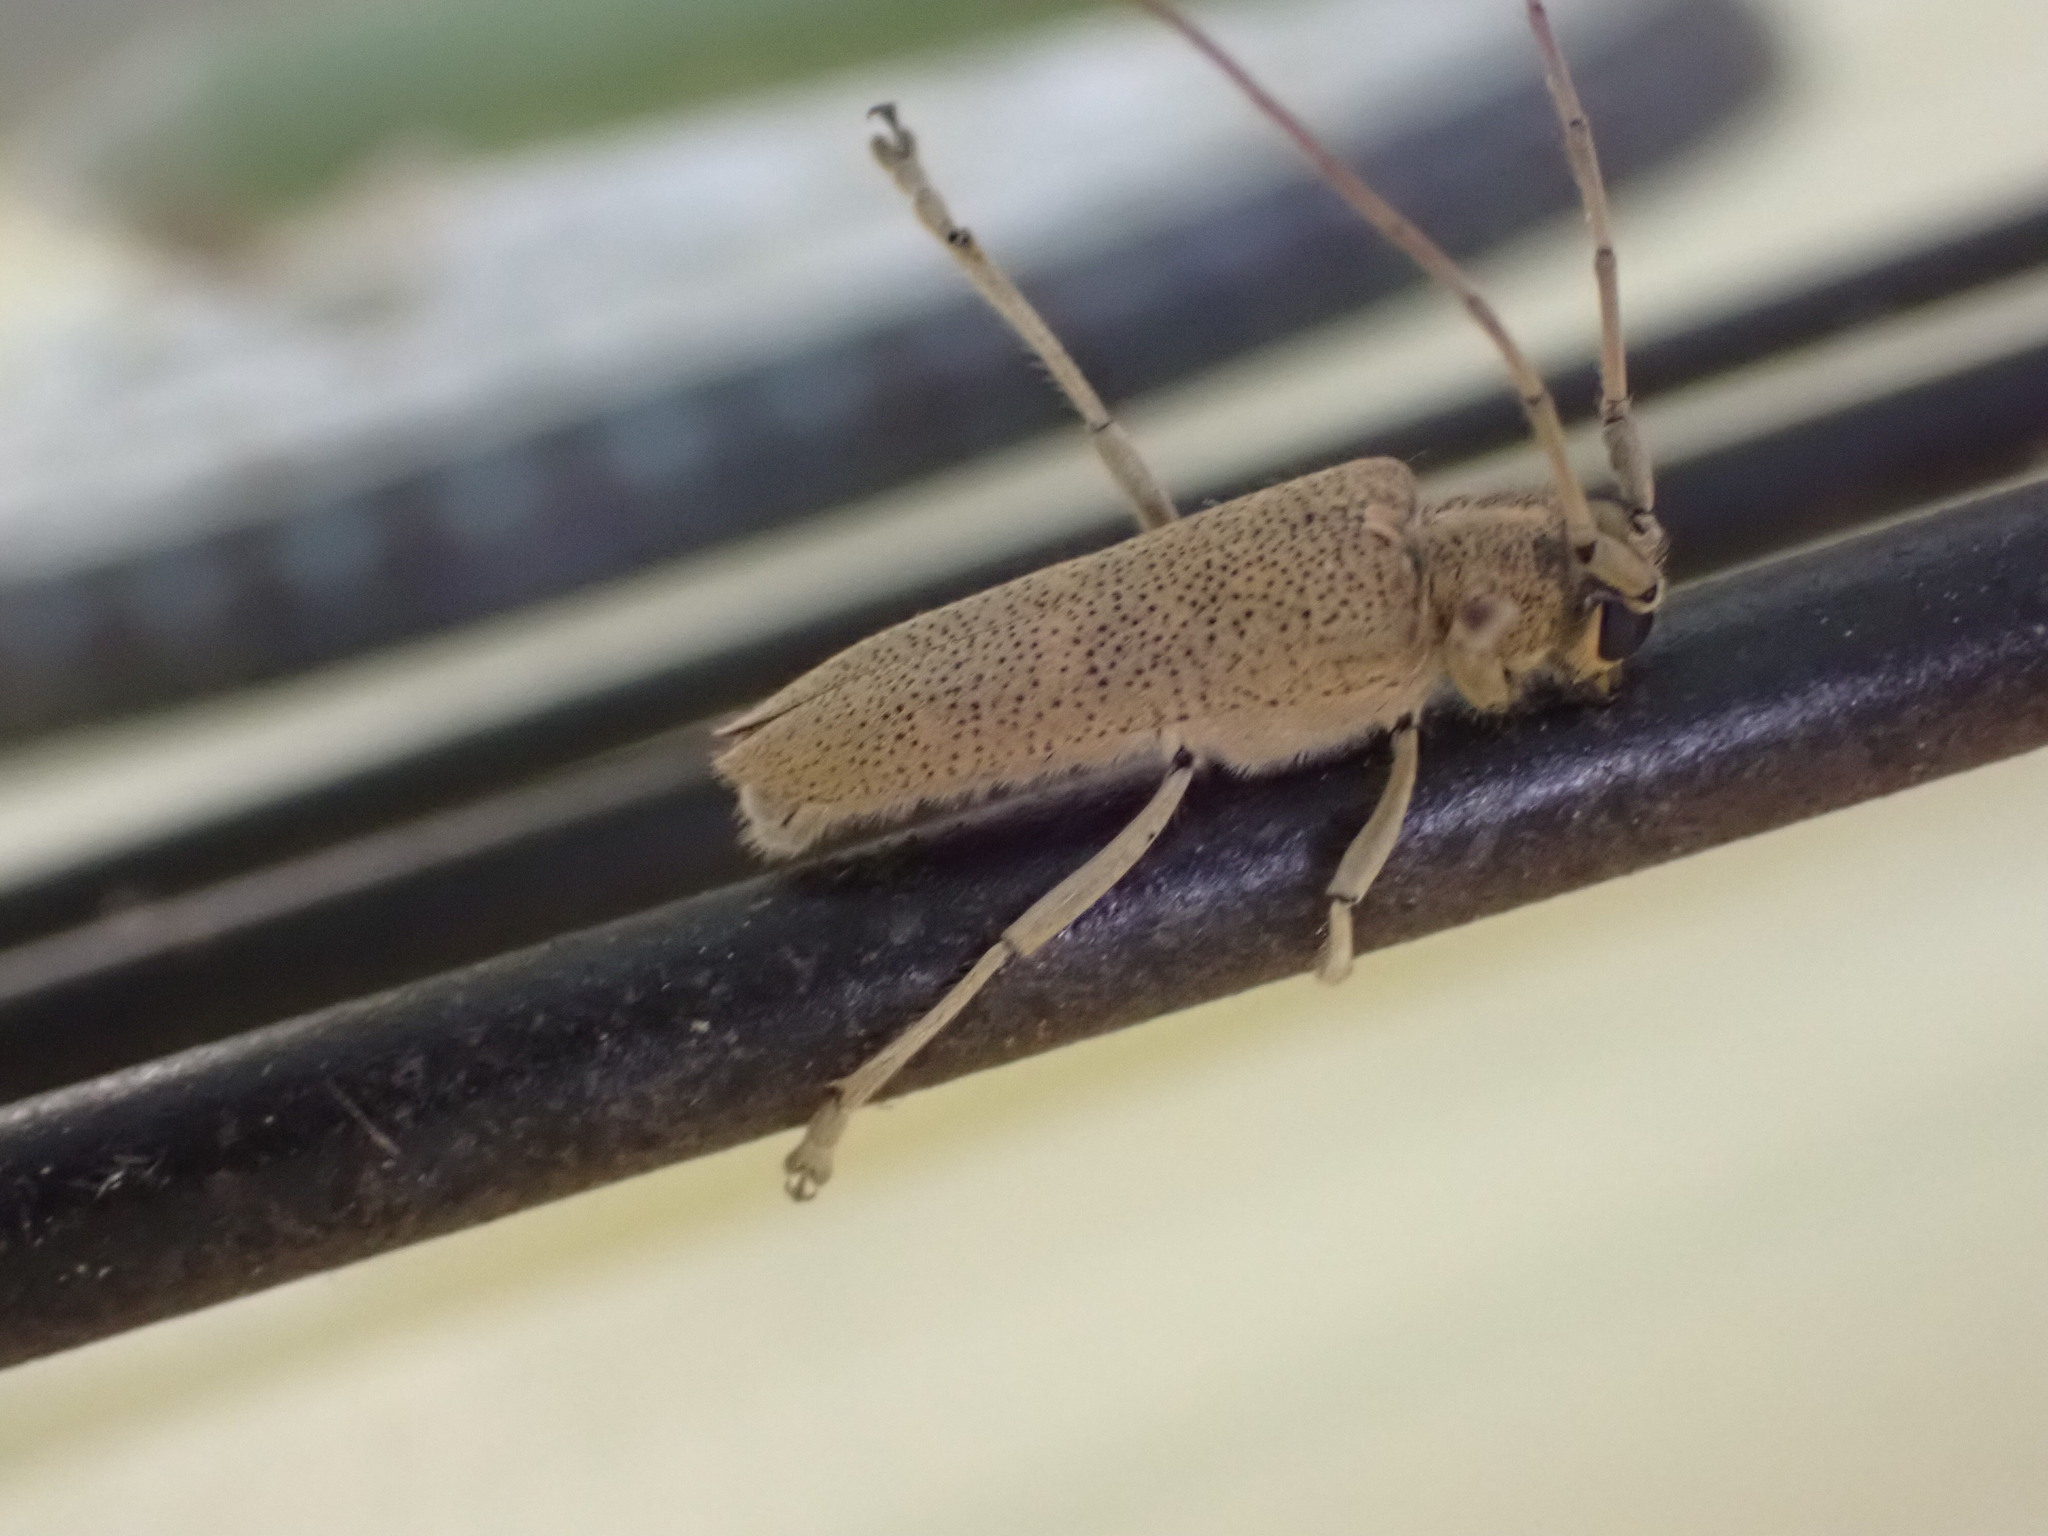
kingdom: Animalia
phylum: Arthropoda
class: Insecta
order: Coleoptera
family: Cerambycidae
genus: Saperda
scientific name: Saperda calcarata
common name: Poplar borer
